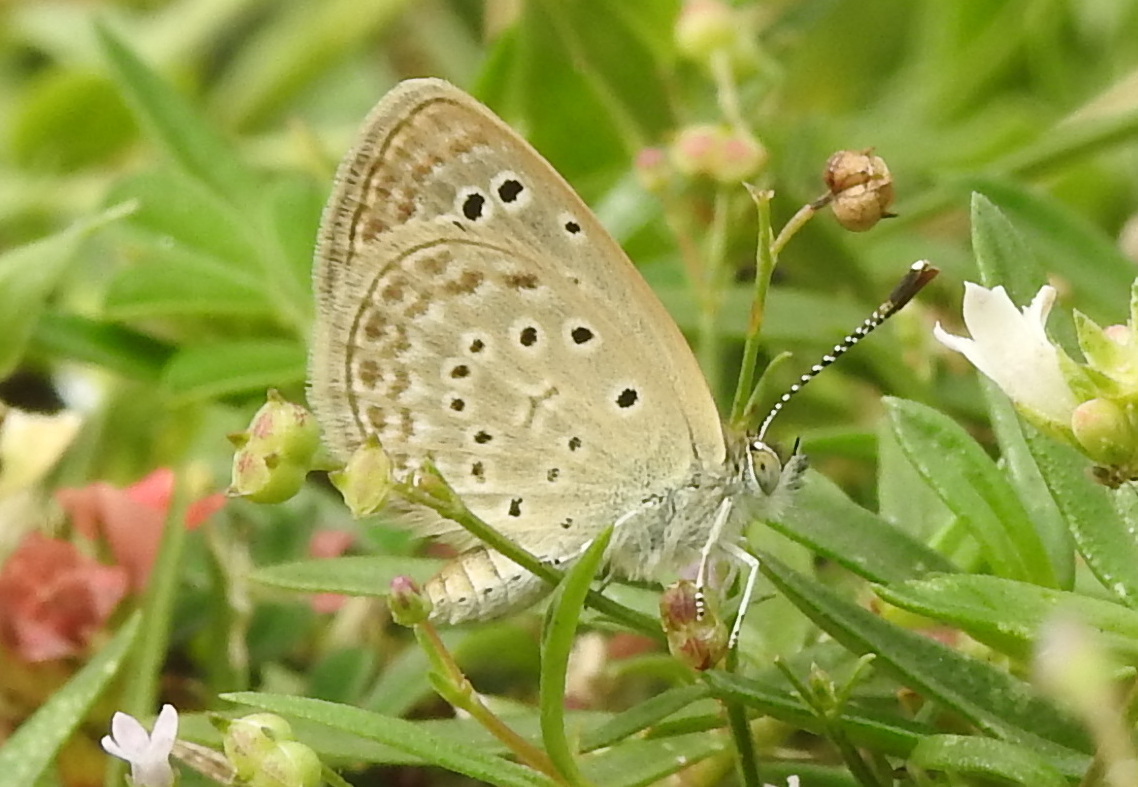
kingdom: Animalia
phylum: Arthropoda
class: Insecta
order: Lepidoptera
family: Lycaenidae
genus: Zizeeria
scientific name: Zizeeria karsandra
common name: Dark grass blue
